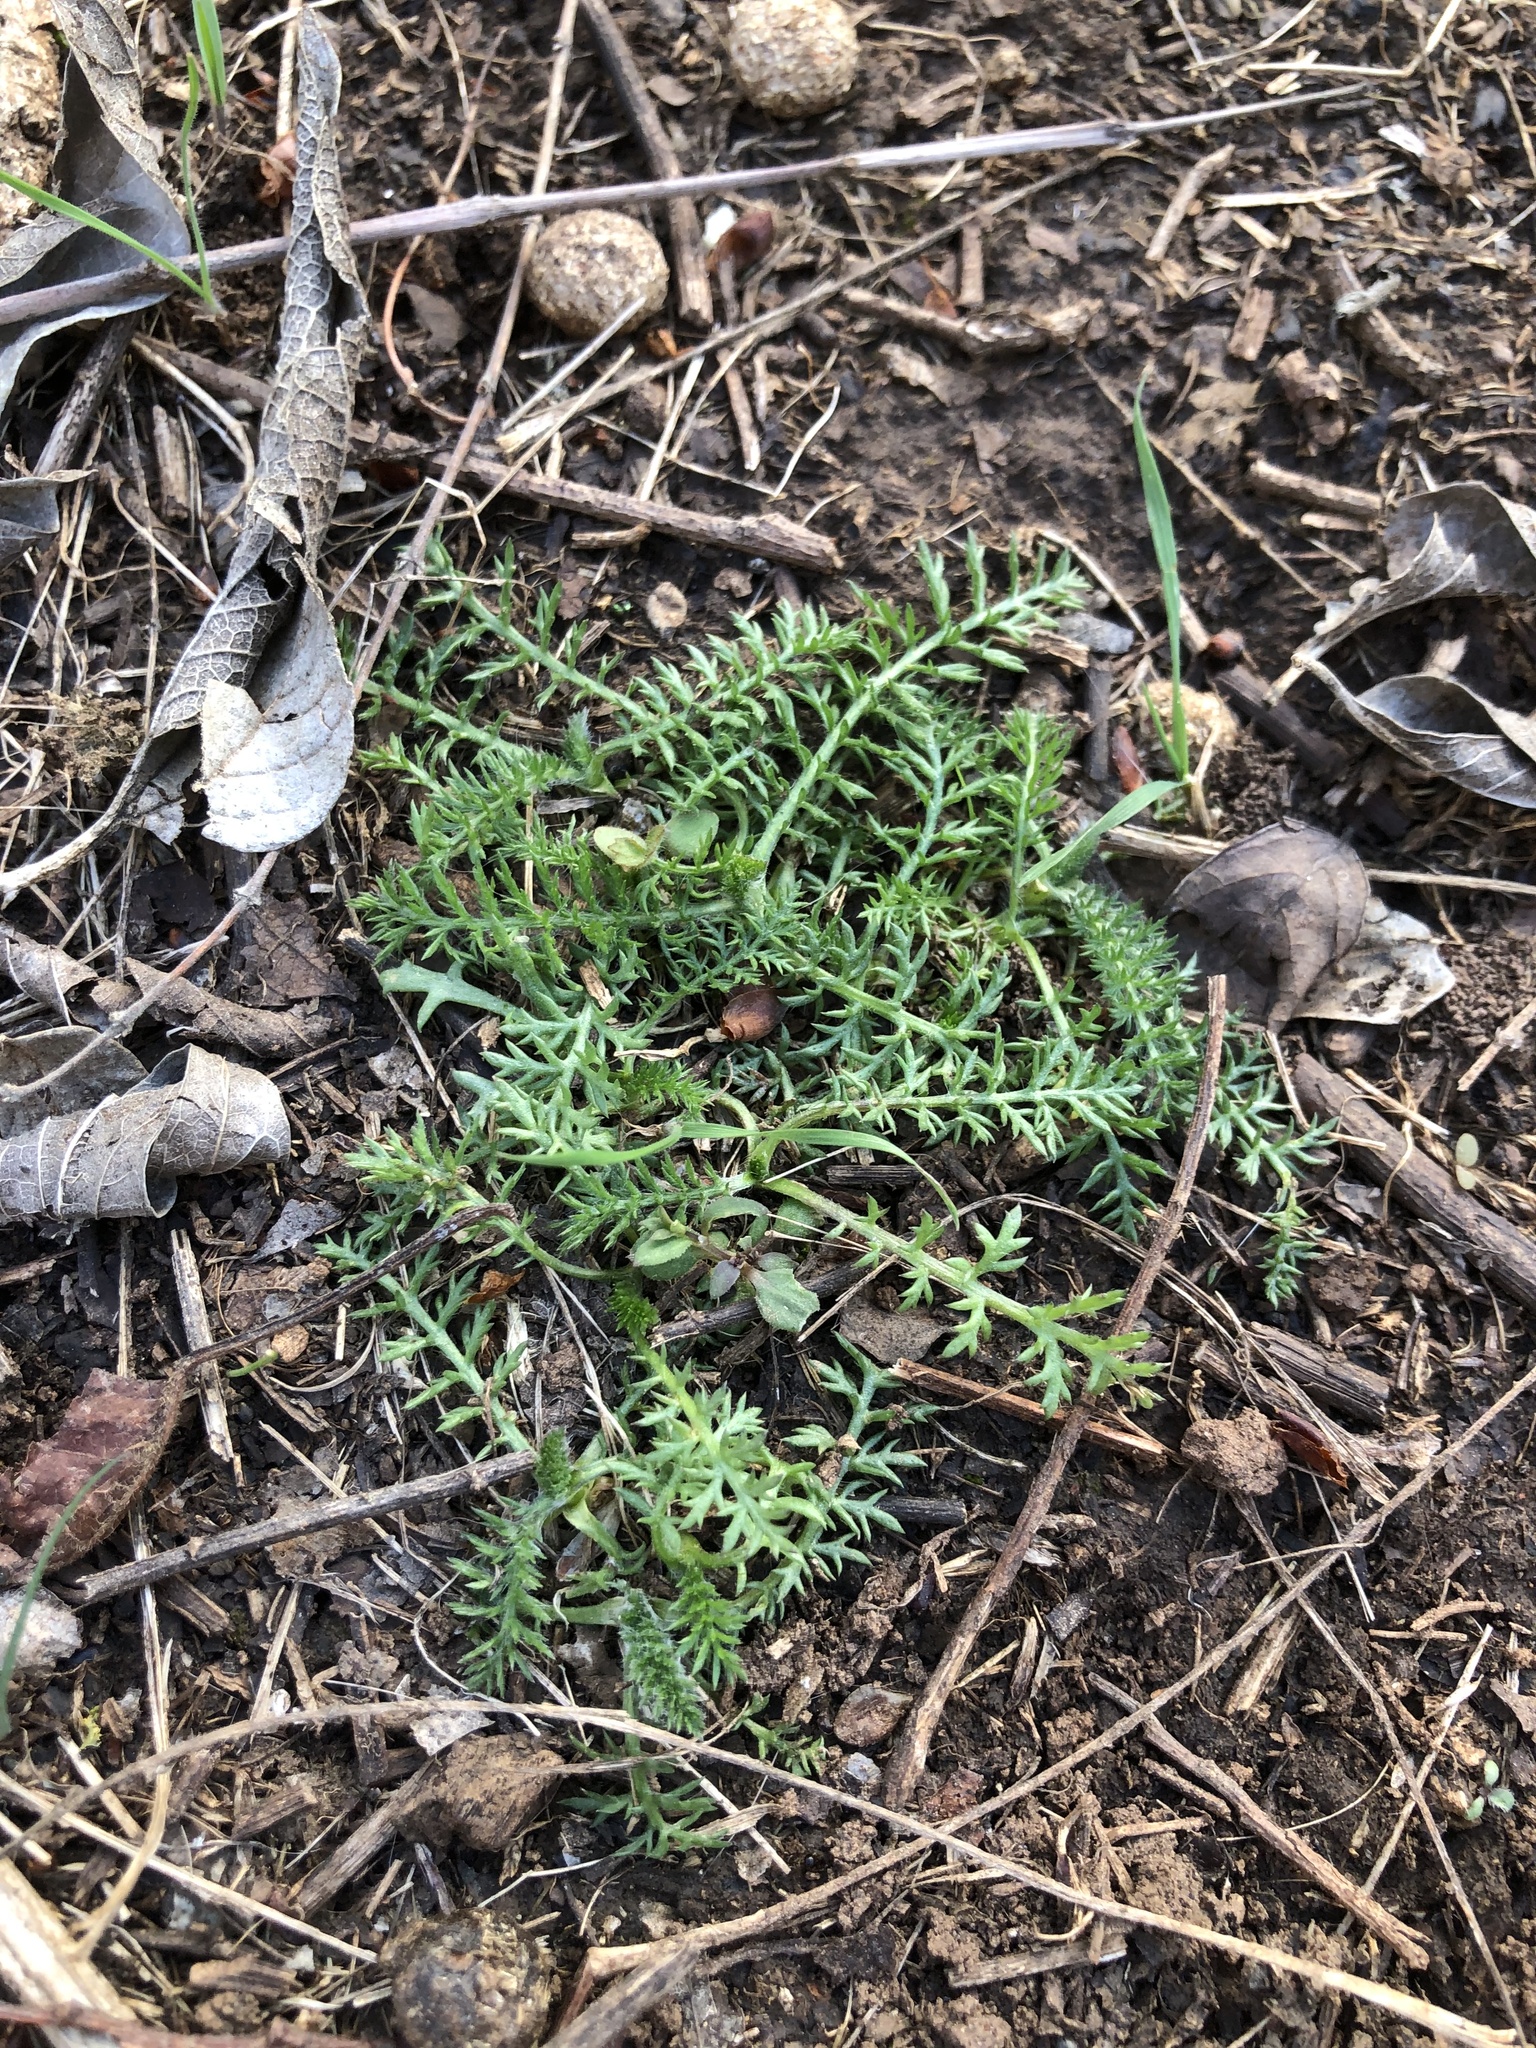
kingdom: Plantae
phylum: Tracheophyta
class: Magnoliopsida
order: Asterales
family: Asteraceae
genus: Achillea
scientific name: Achillea millefolium
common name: Yarrow
